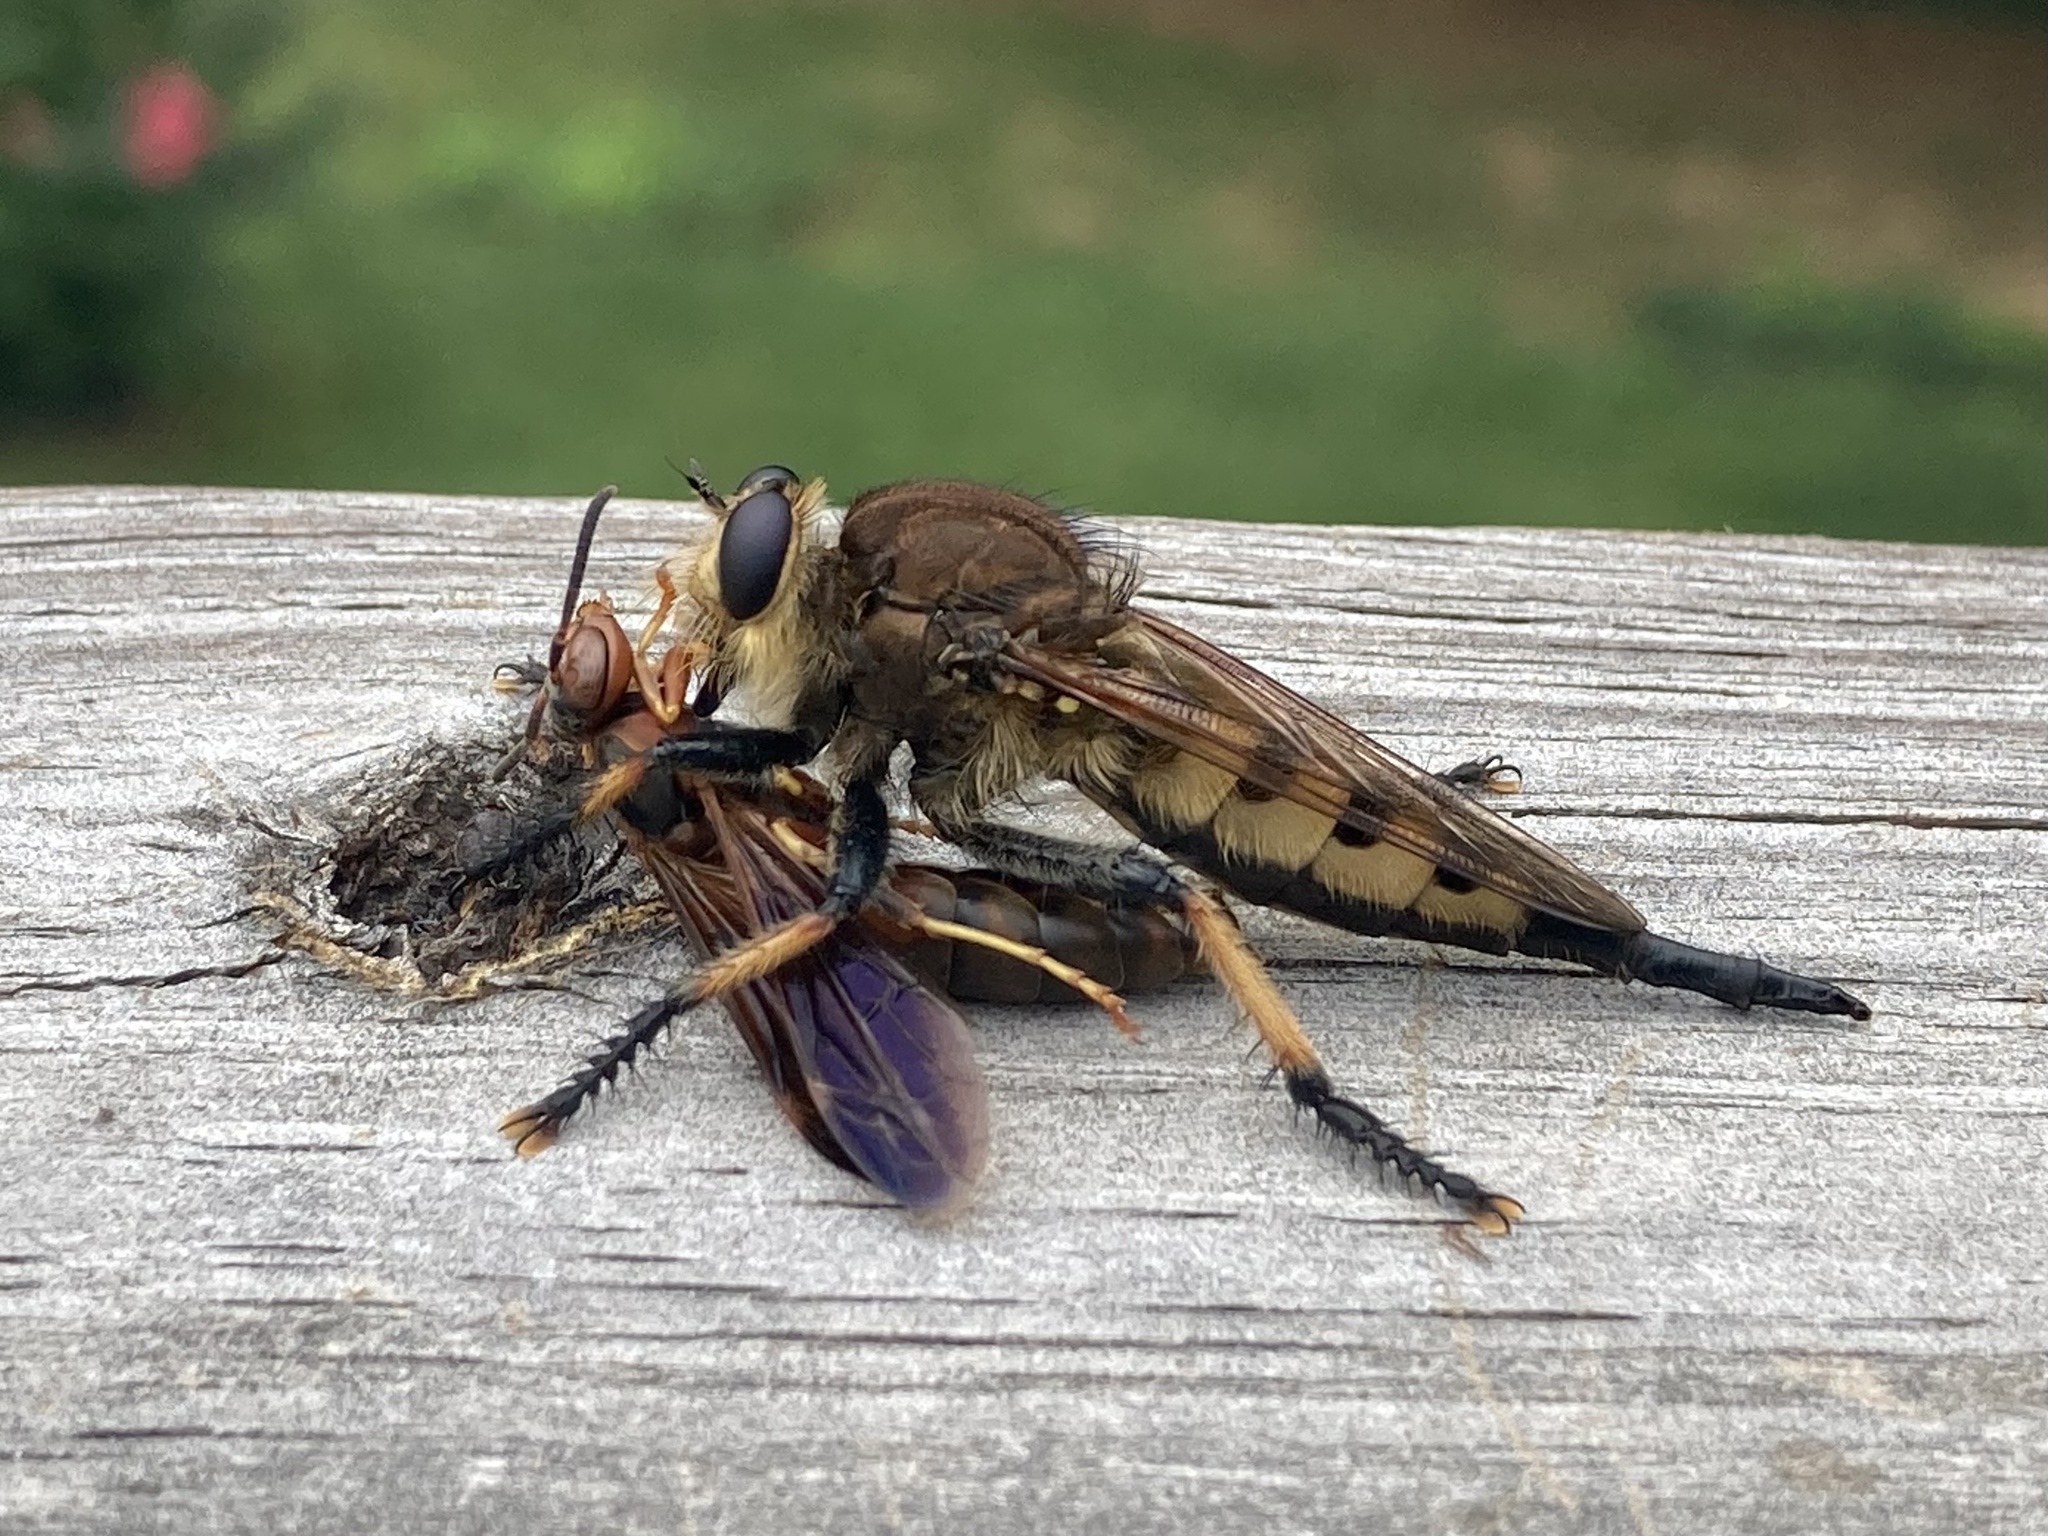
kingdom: Animalia
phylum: Arthropoda
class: Insecta
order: Diptera
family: Asilidae
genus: Promachus
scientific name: Promachus rufipes
